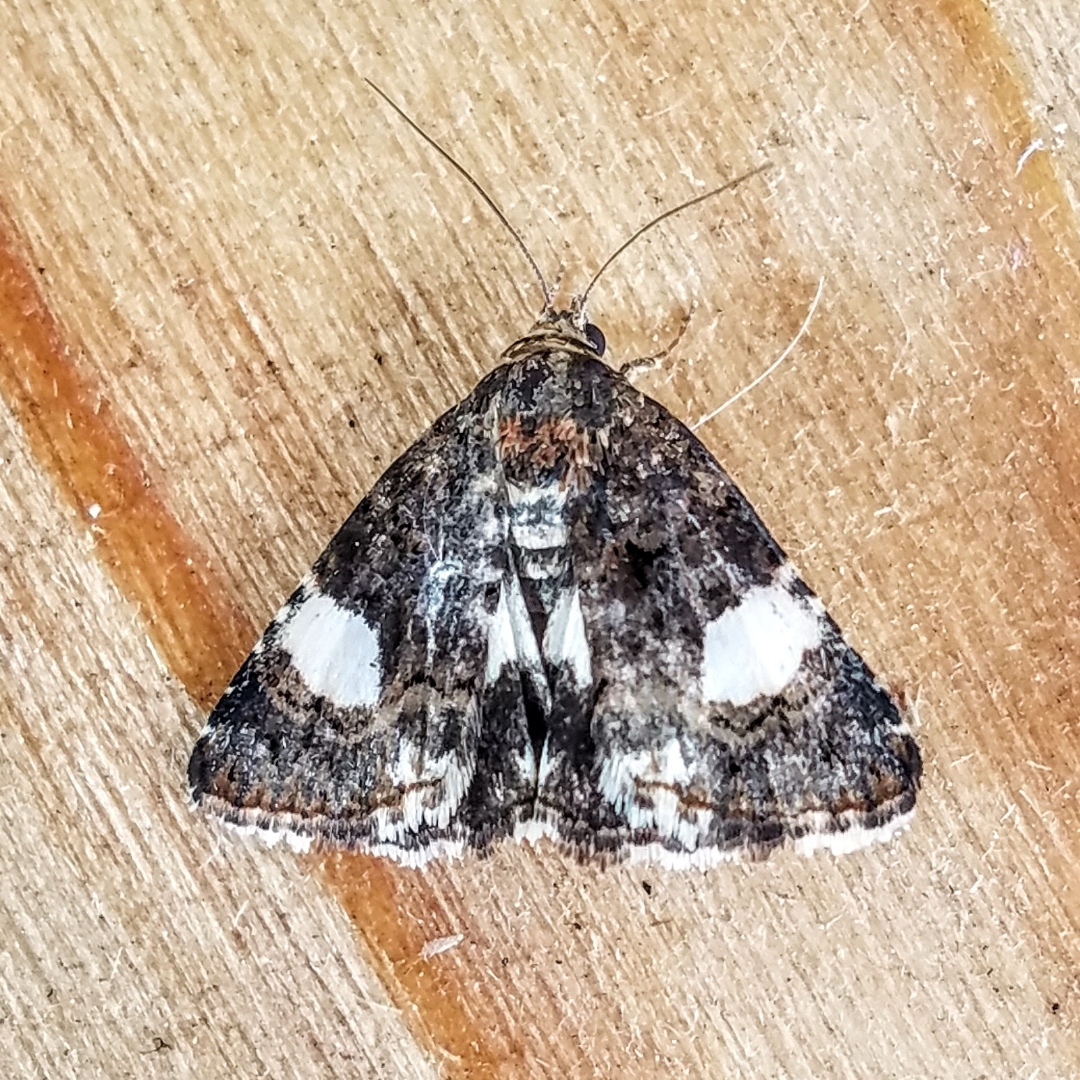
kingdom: Animalia
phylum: Arthropoda
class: Insecta
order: Lepidoptera
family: Erebidae
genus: Tyta
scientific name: Tyta luctuosa
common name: Four-spotted
